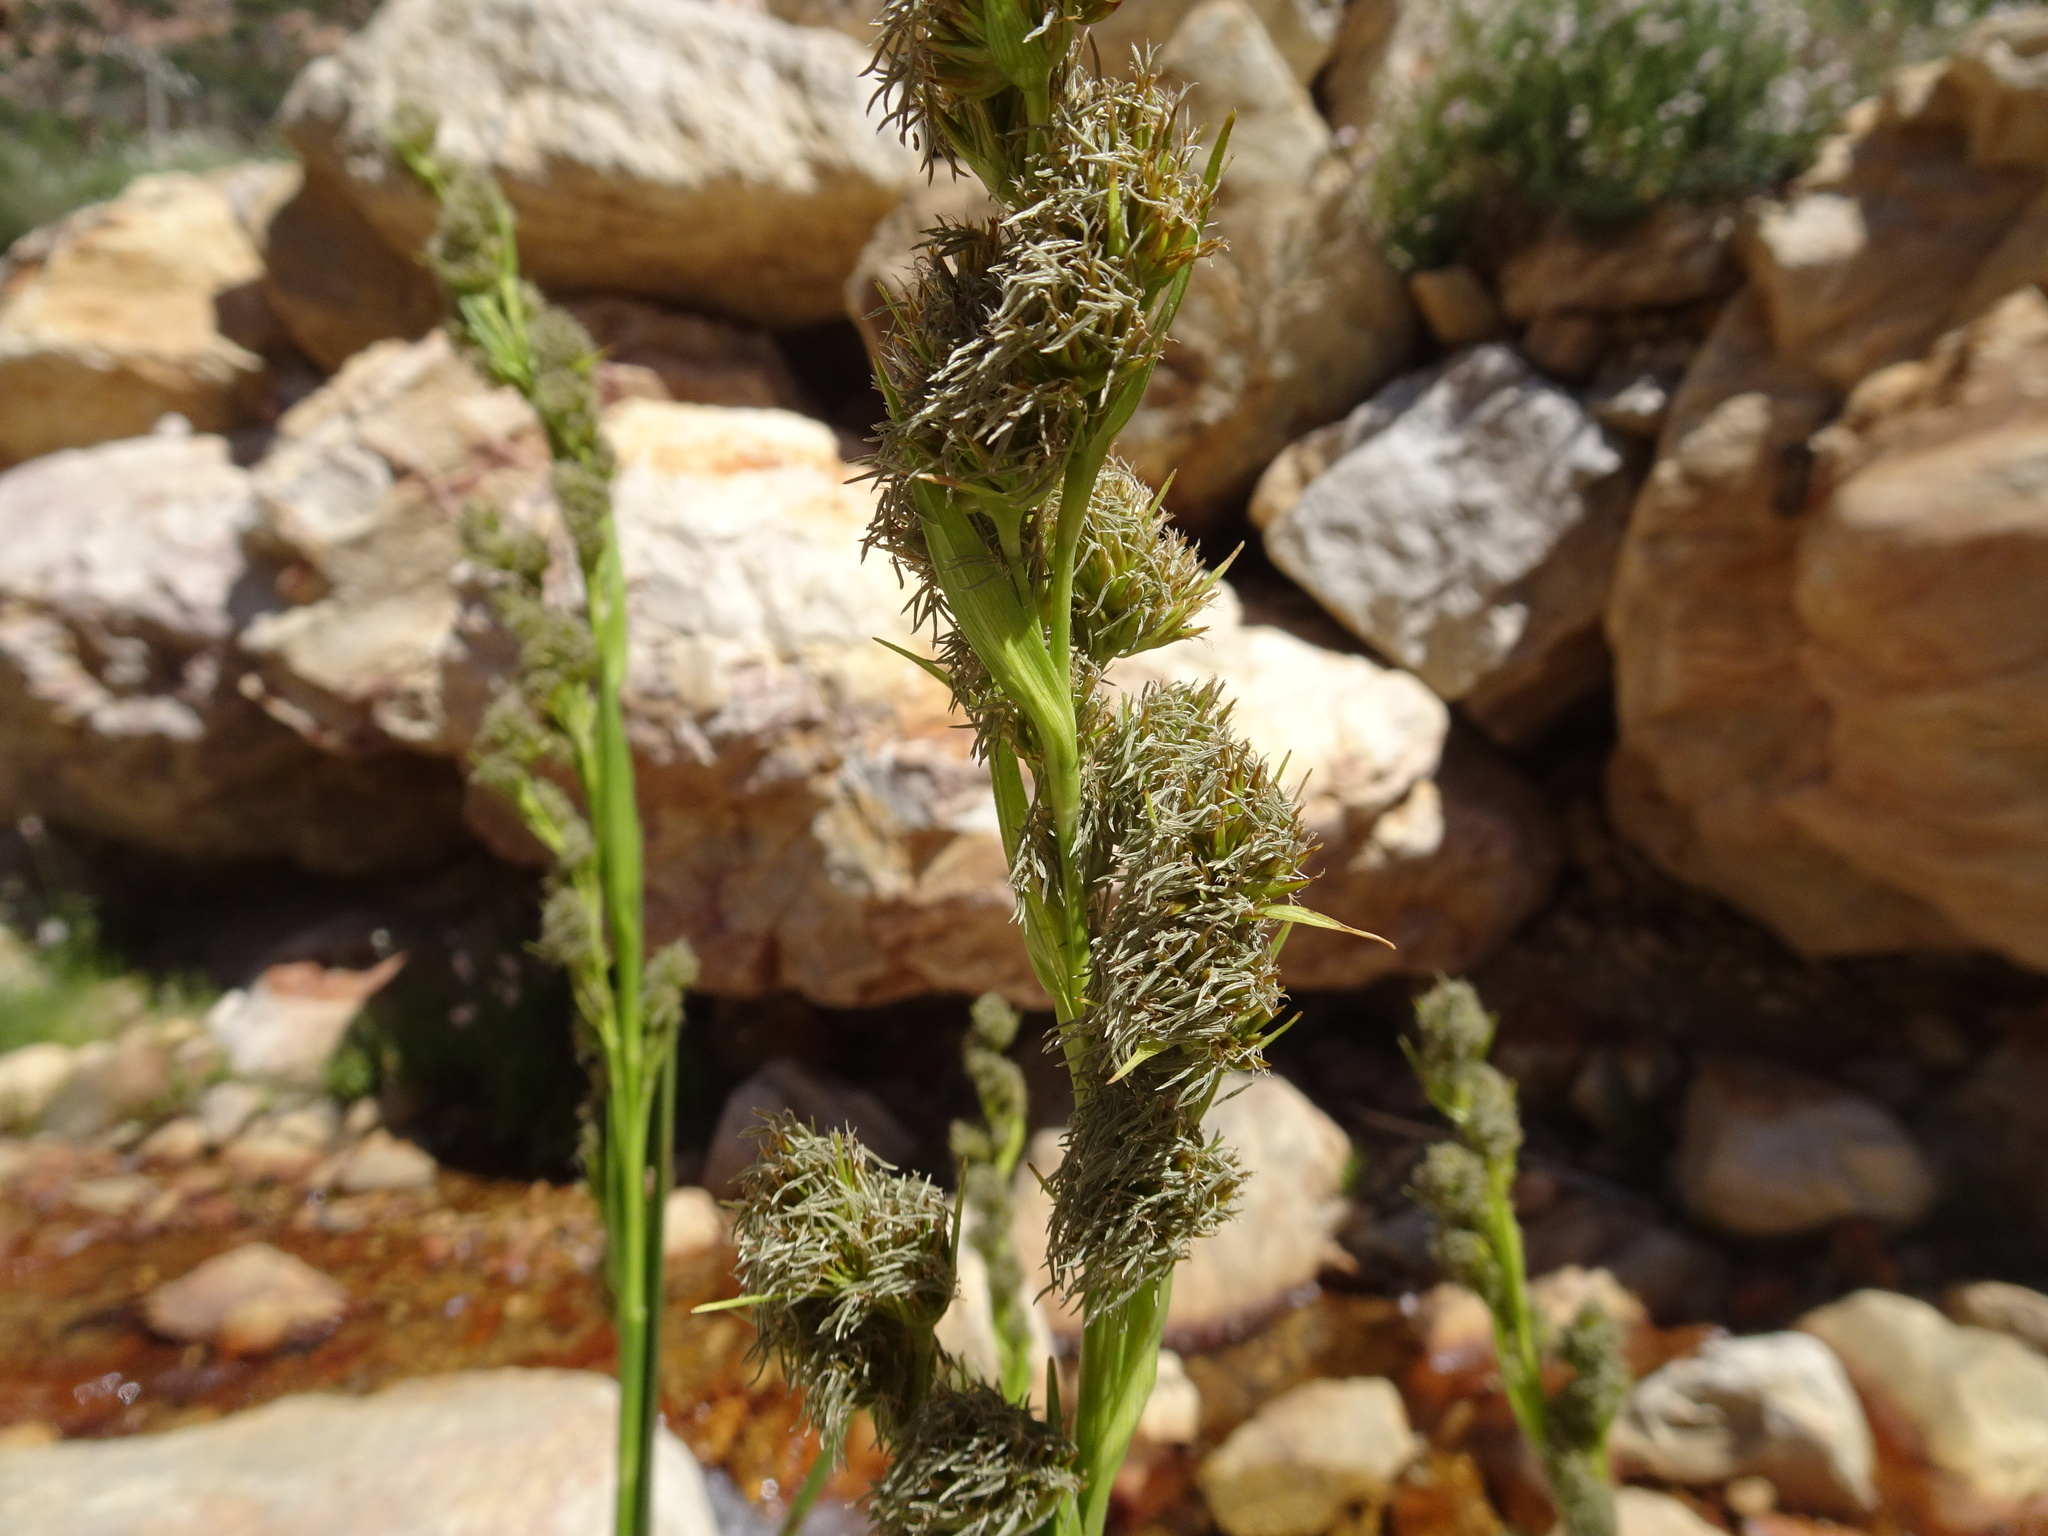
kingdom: Plantae
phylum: Tracheophyta
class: Liliopsida
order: Poales
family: Cyperaceae
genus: Carpha
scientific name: Carpha glomerata
